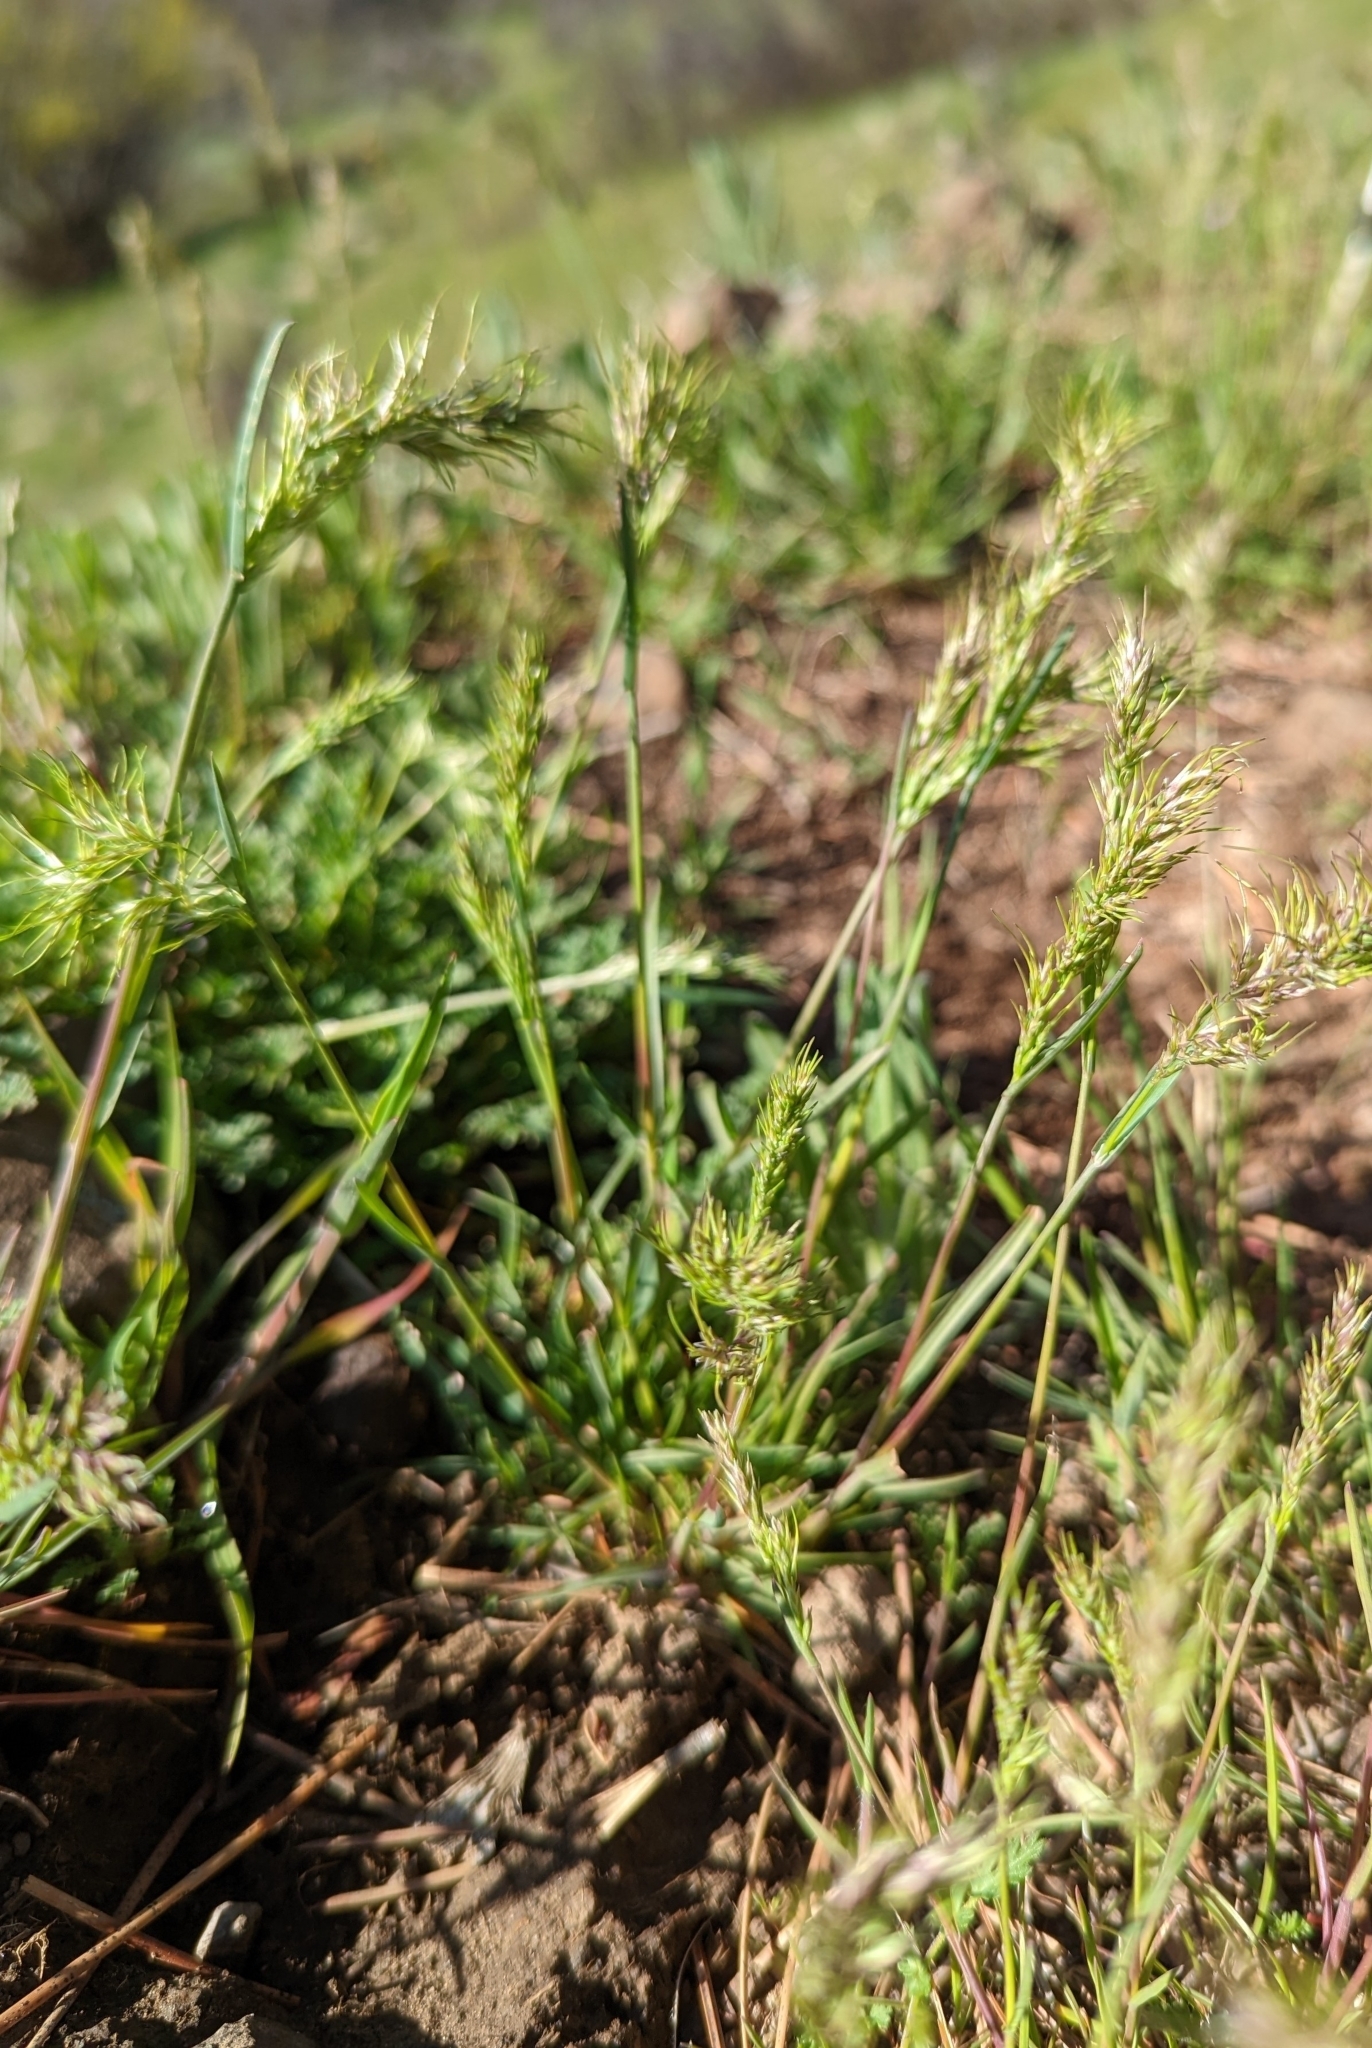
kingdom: Plantae
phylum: Tracheophyta
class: Liliopsida
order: Poales
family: Poaceae
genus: Poa
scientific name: Poa bulbosa
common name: Bulbous bluegrass
